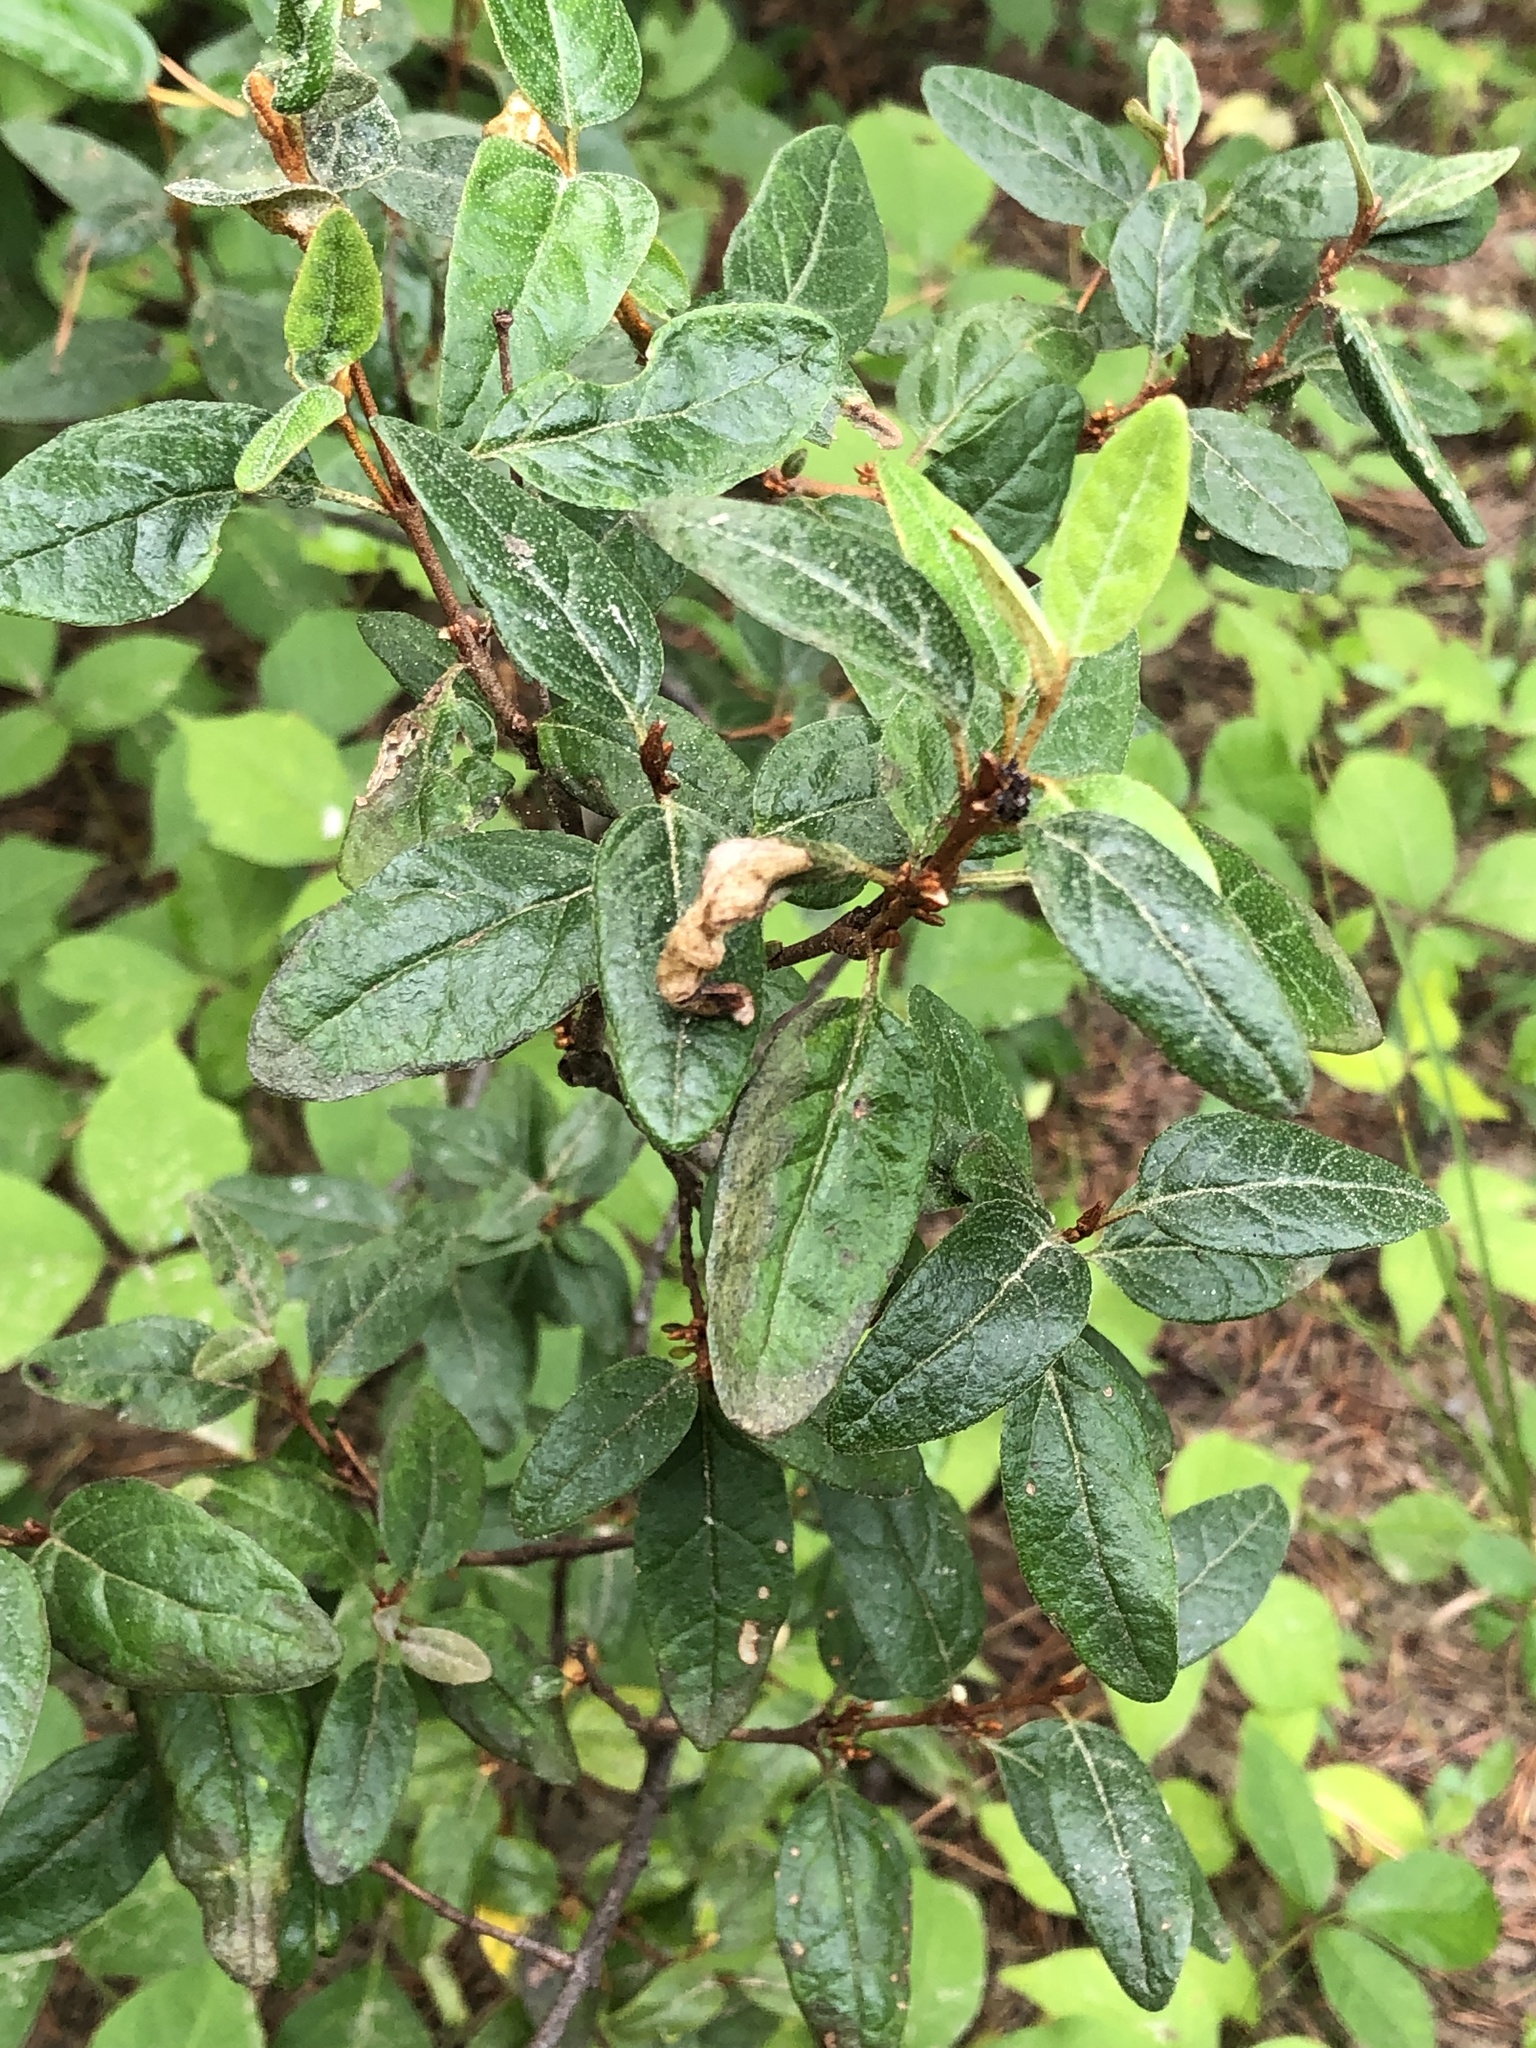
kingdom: Plantae
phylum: Tracheophyta
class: Magnoliopsida
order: Rosales
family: Elaeagnaceae
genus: Shepherdia
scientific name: Shepherdia canadensis
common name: Soapberry
